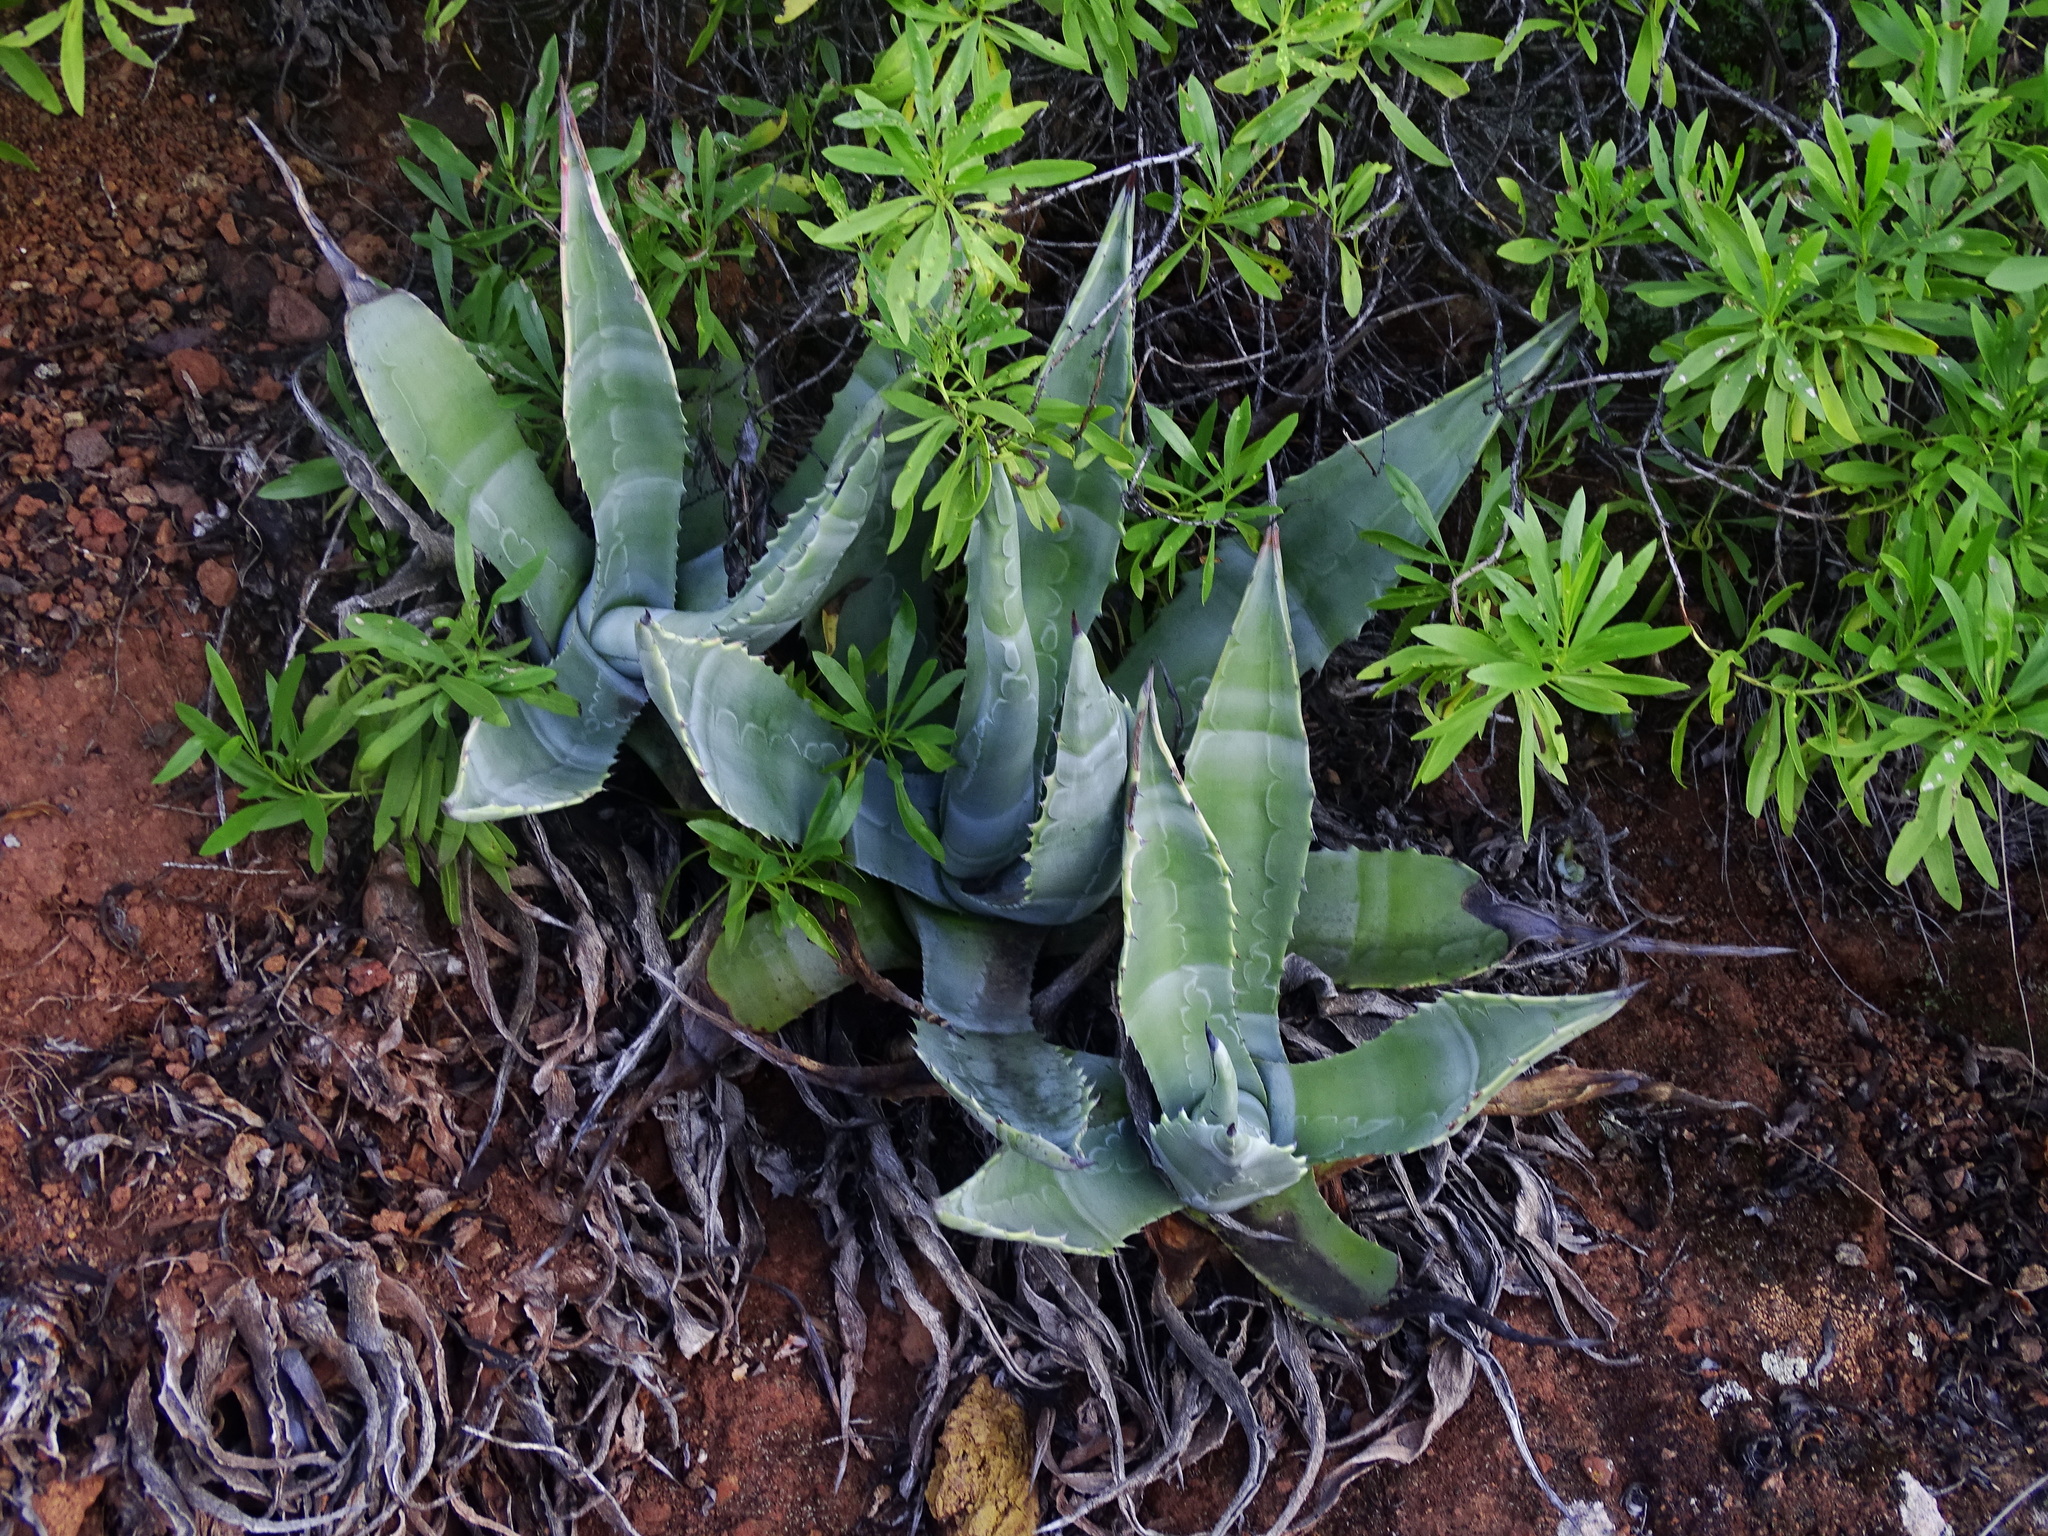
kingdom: Plantae
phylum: Tracheophyta
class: Liliopsida
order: Asparagales
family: Asparagaceae
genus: Agave
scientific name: Agave americana
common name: Centuryplant
